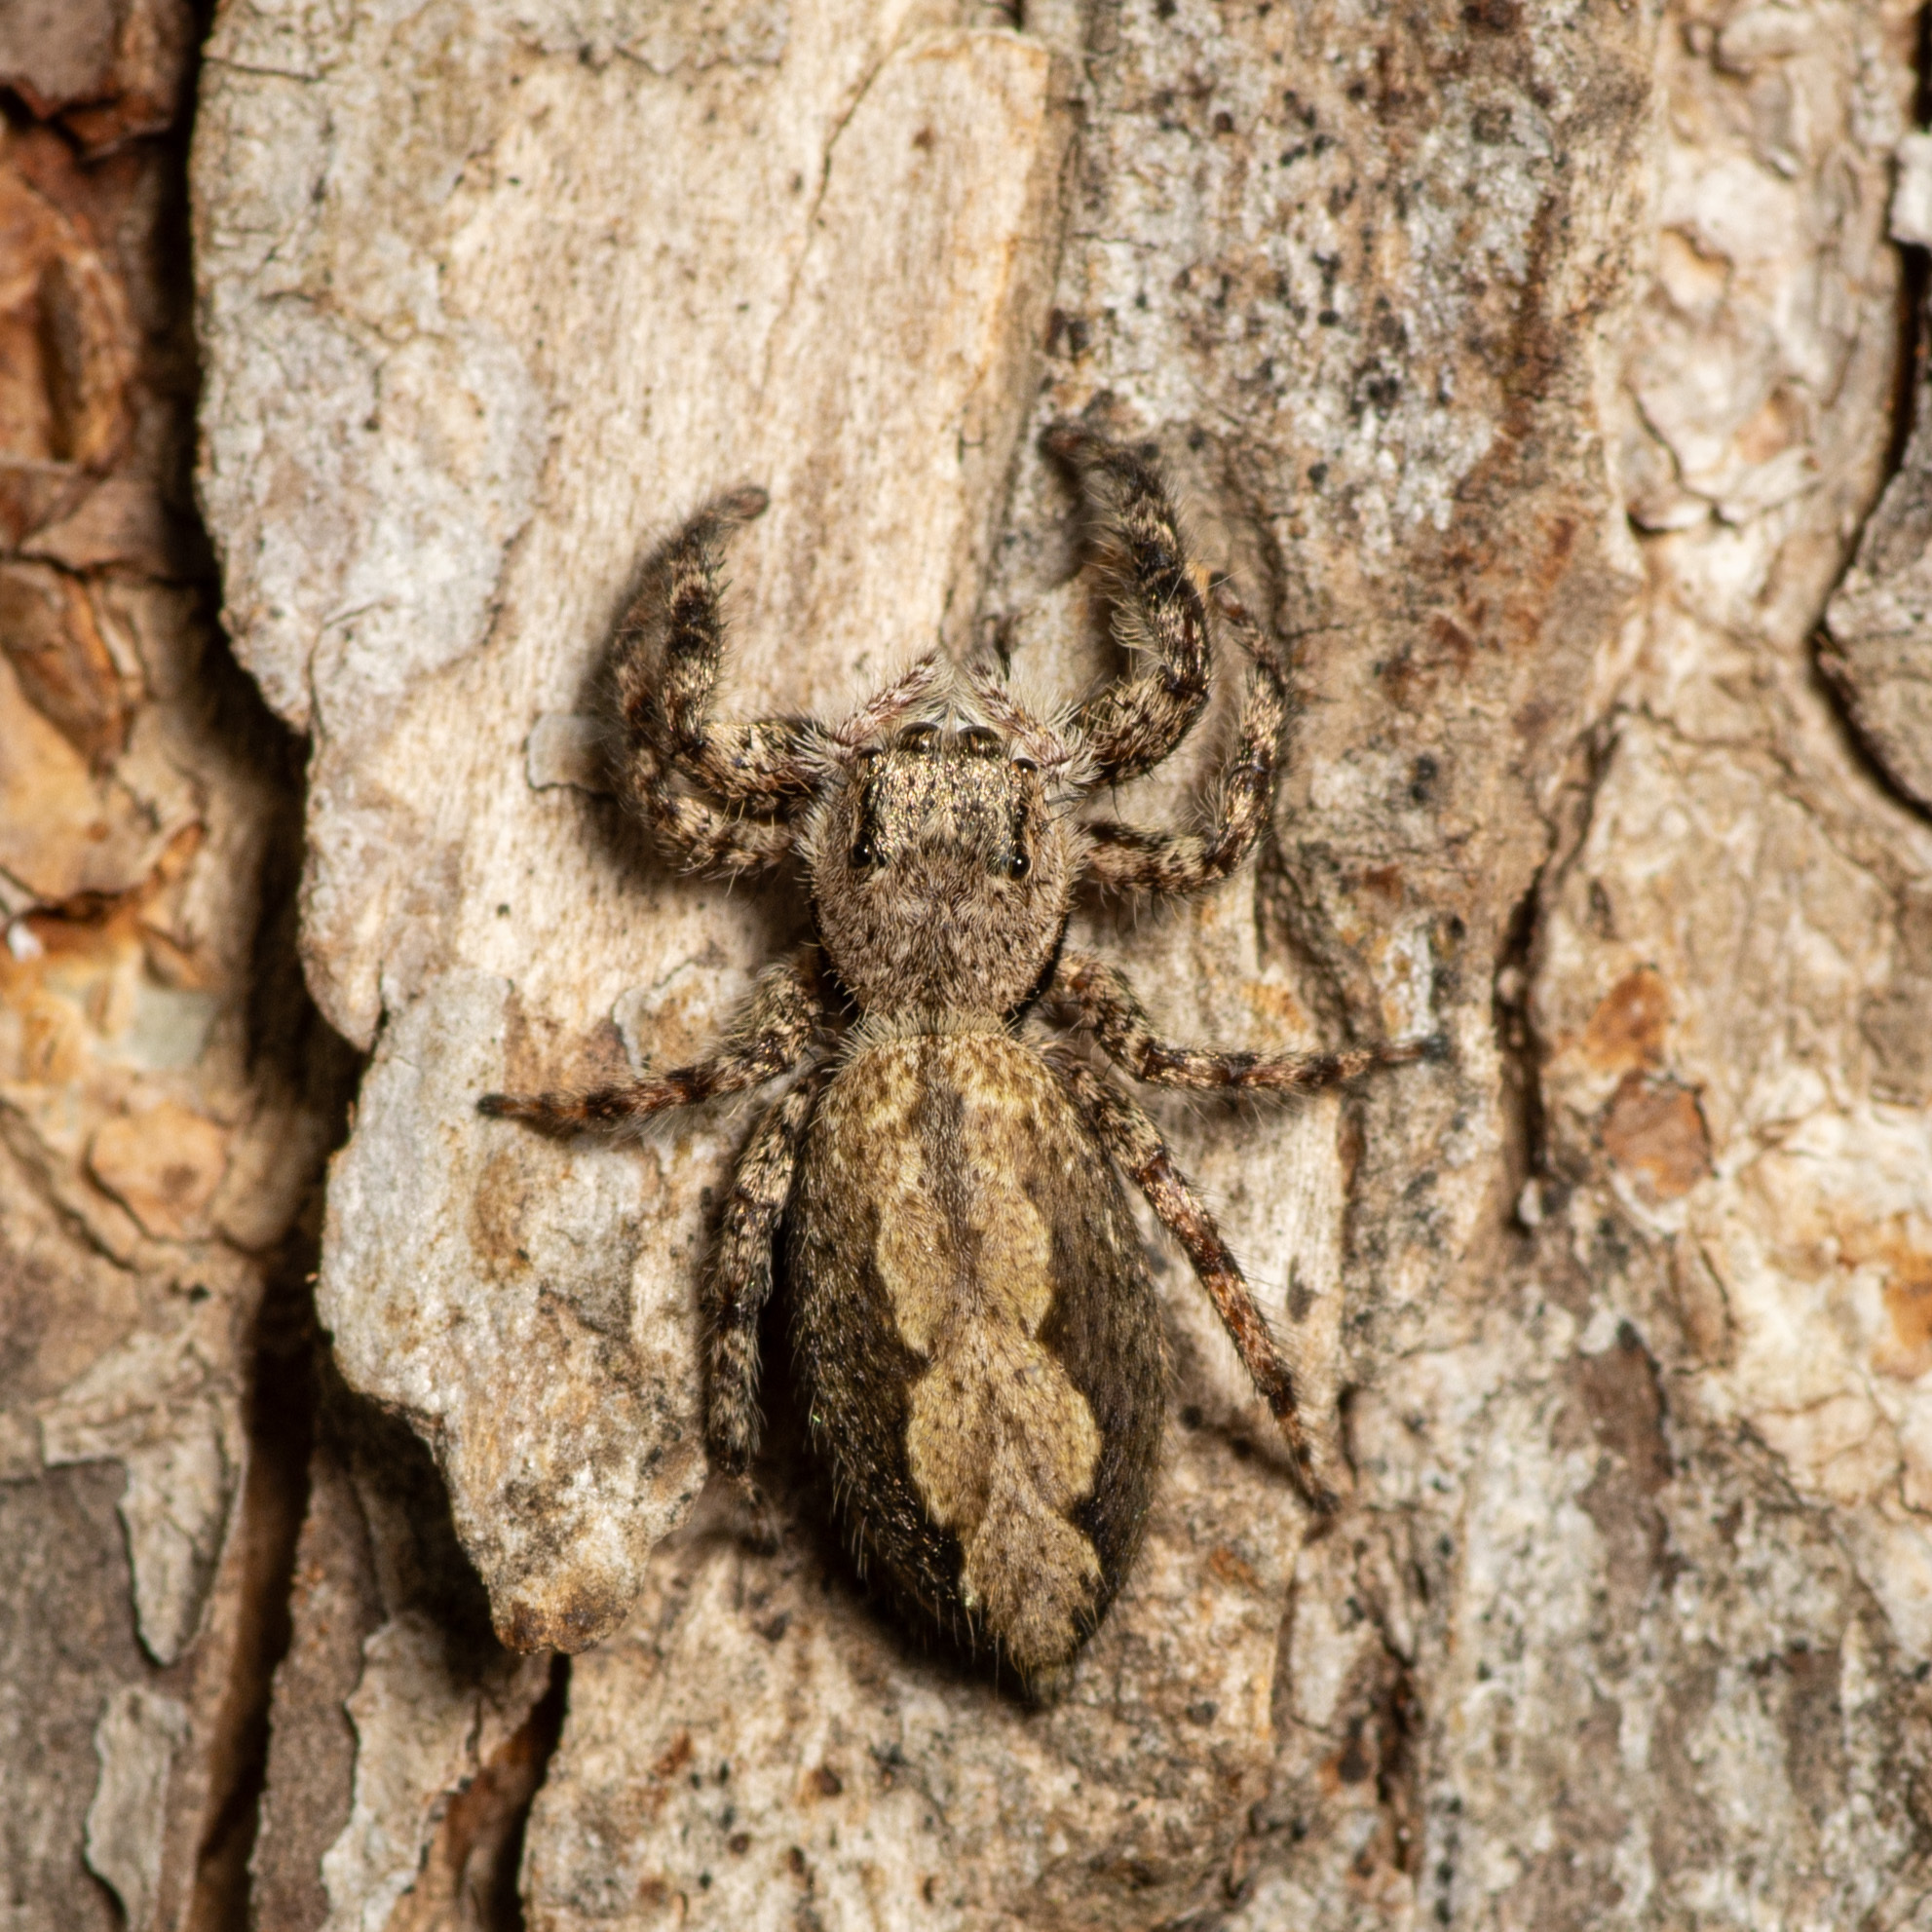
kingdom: Animalia
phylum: Arthropoda
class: Arachnida
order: Araneae
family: Salticidae
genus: Platycryptus
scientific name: Platycryptus undatus
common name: Tan jumping spider
